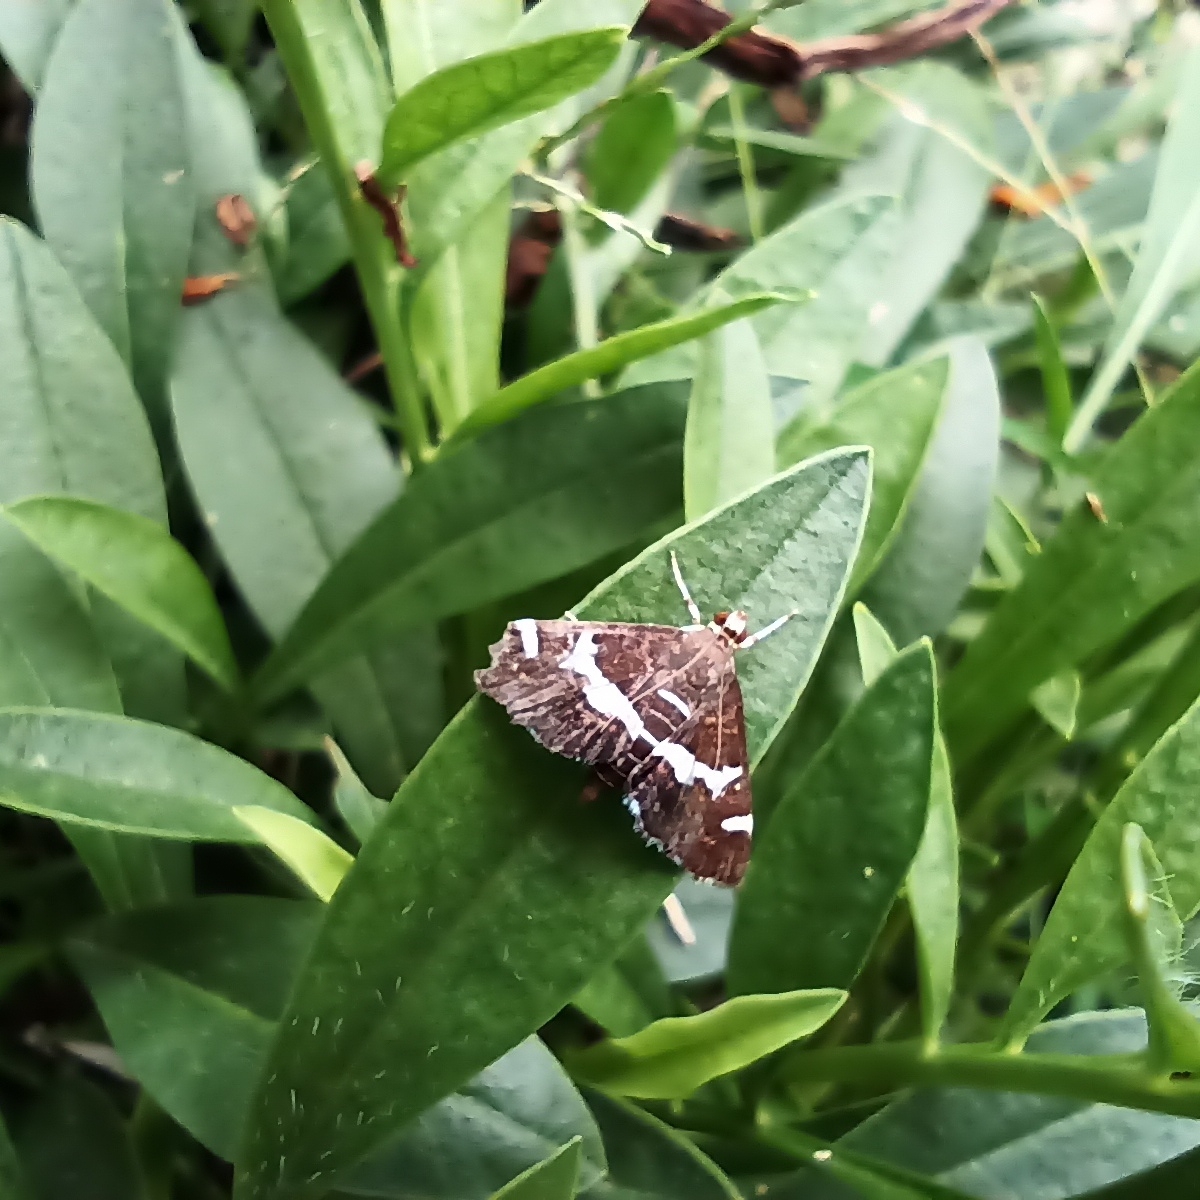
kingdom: Animalia
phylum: Arthropoda
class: Insecta
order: Lepidoptera
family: Crambidae
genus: Spoladea
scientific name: Spoladea recurvalis
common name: Beet webworm moth
